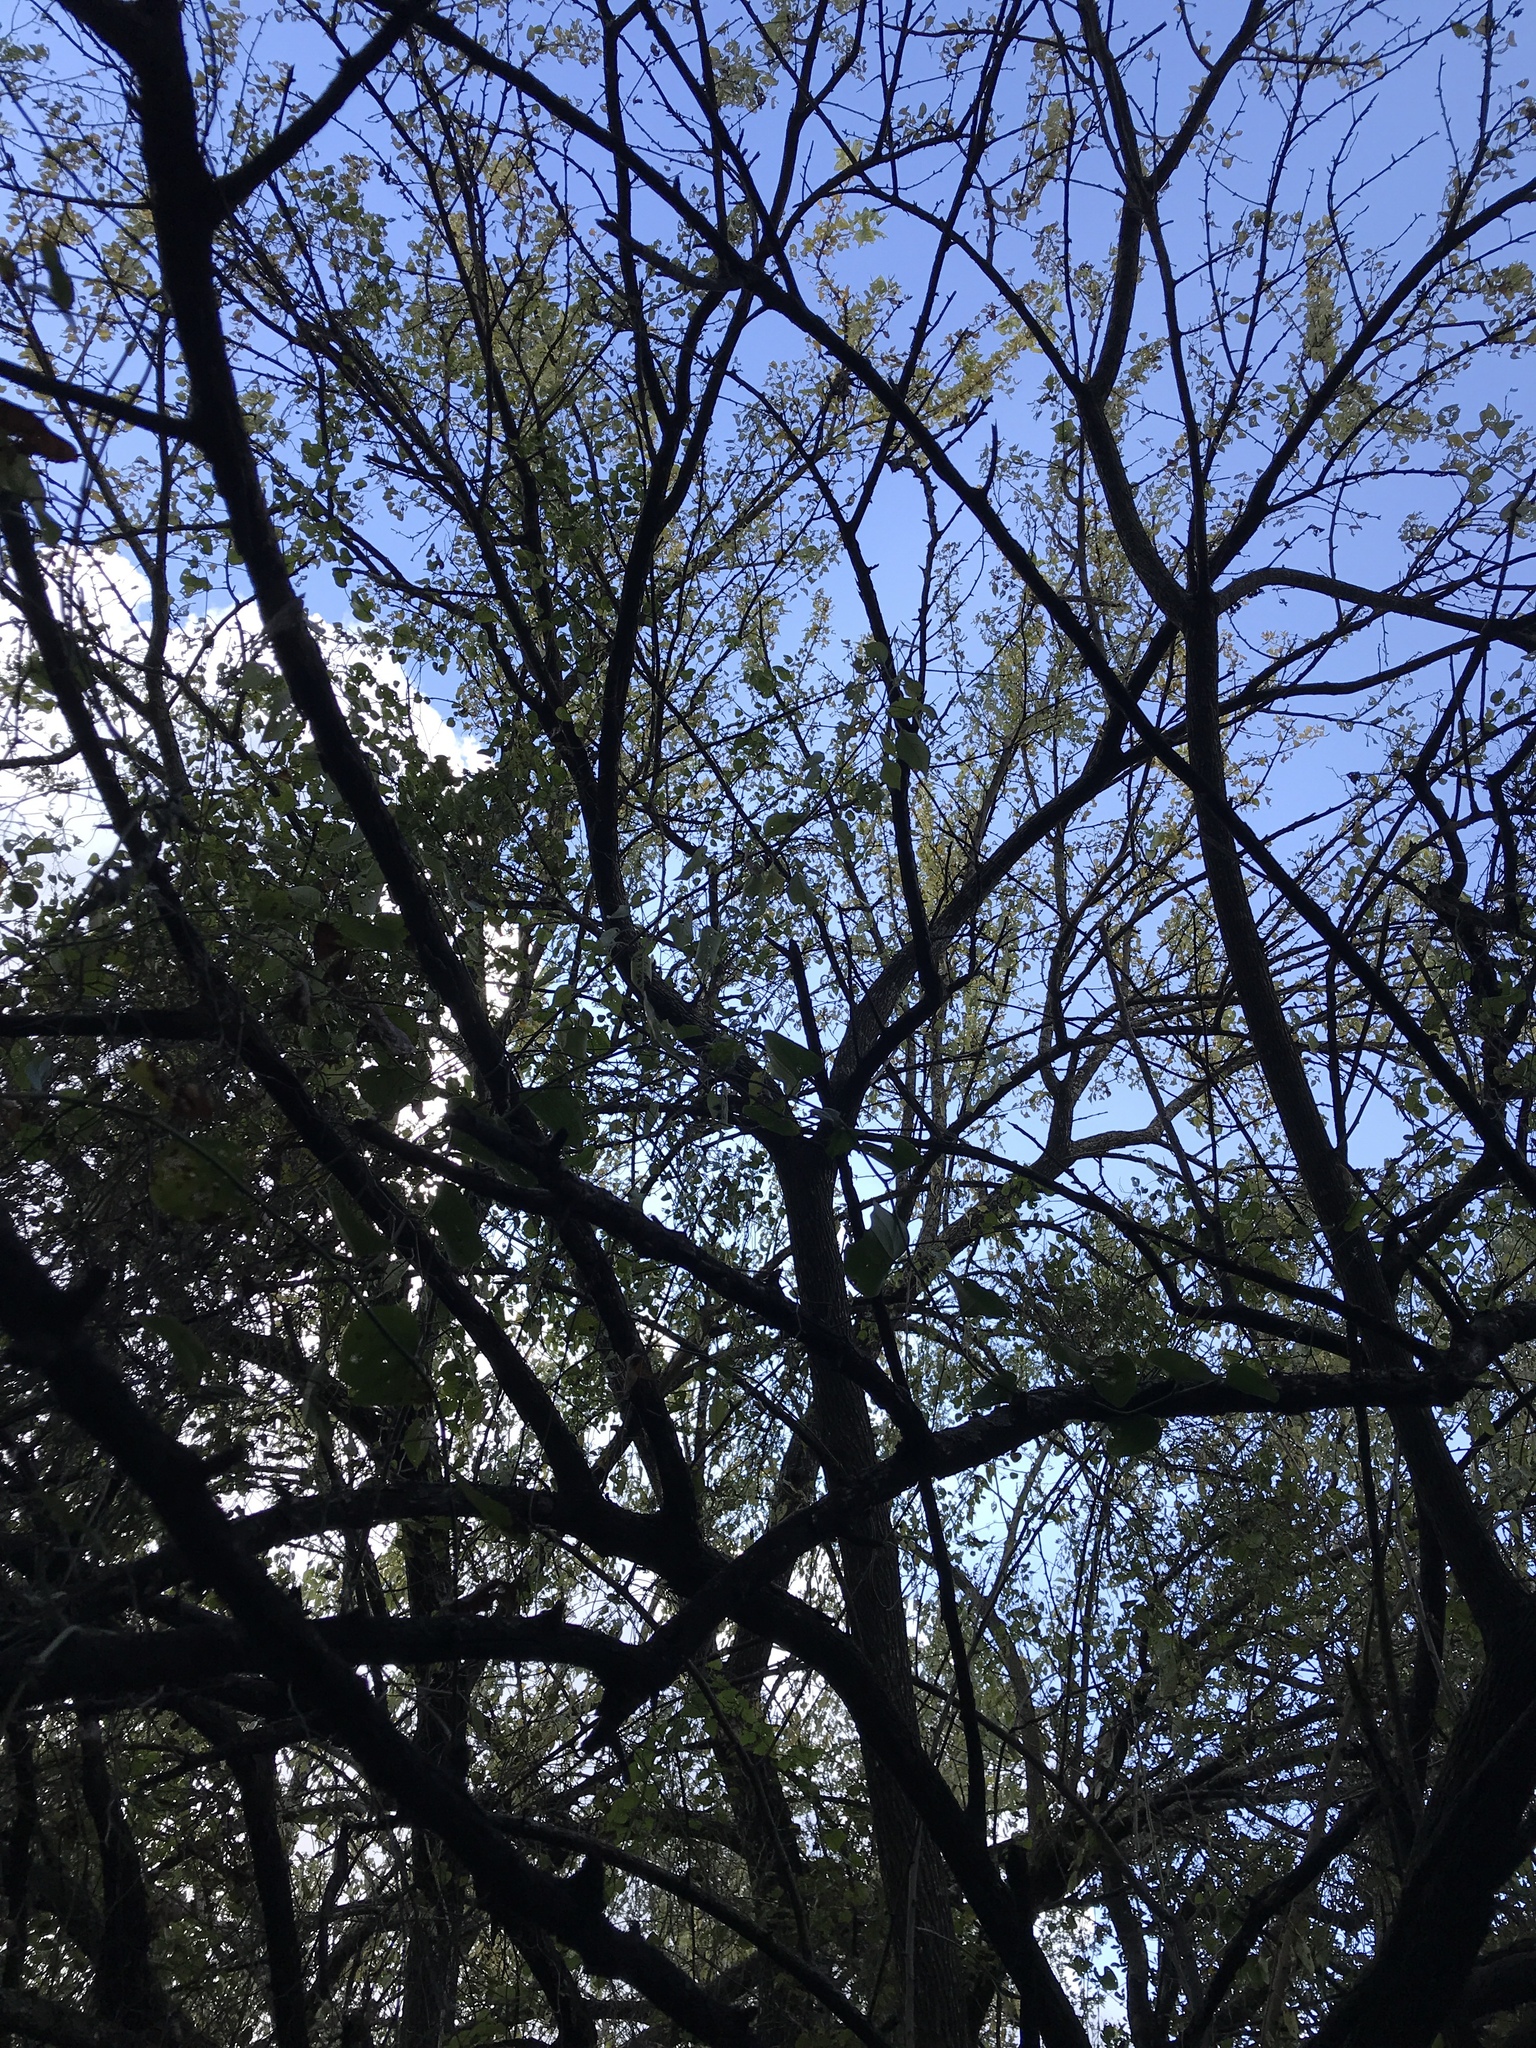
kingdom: Plantae
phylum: Tracheophyta
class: Magnoliopsida
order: Rosales
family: Moraceae
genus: Maclura
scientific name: Maclura pomifera
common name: Osage-orange
